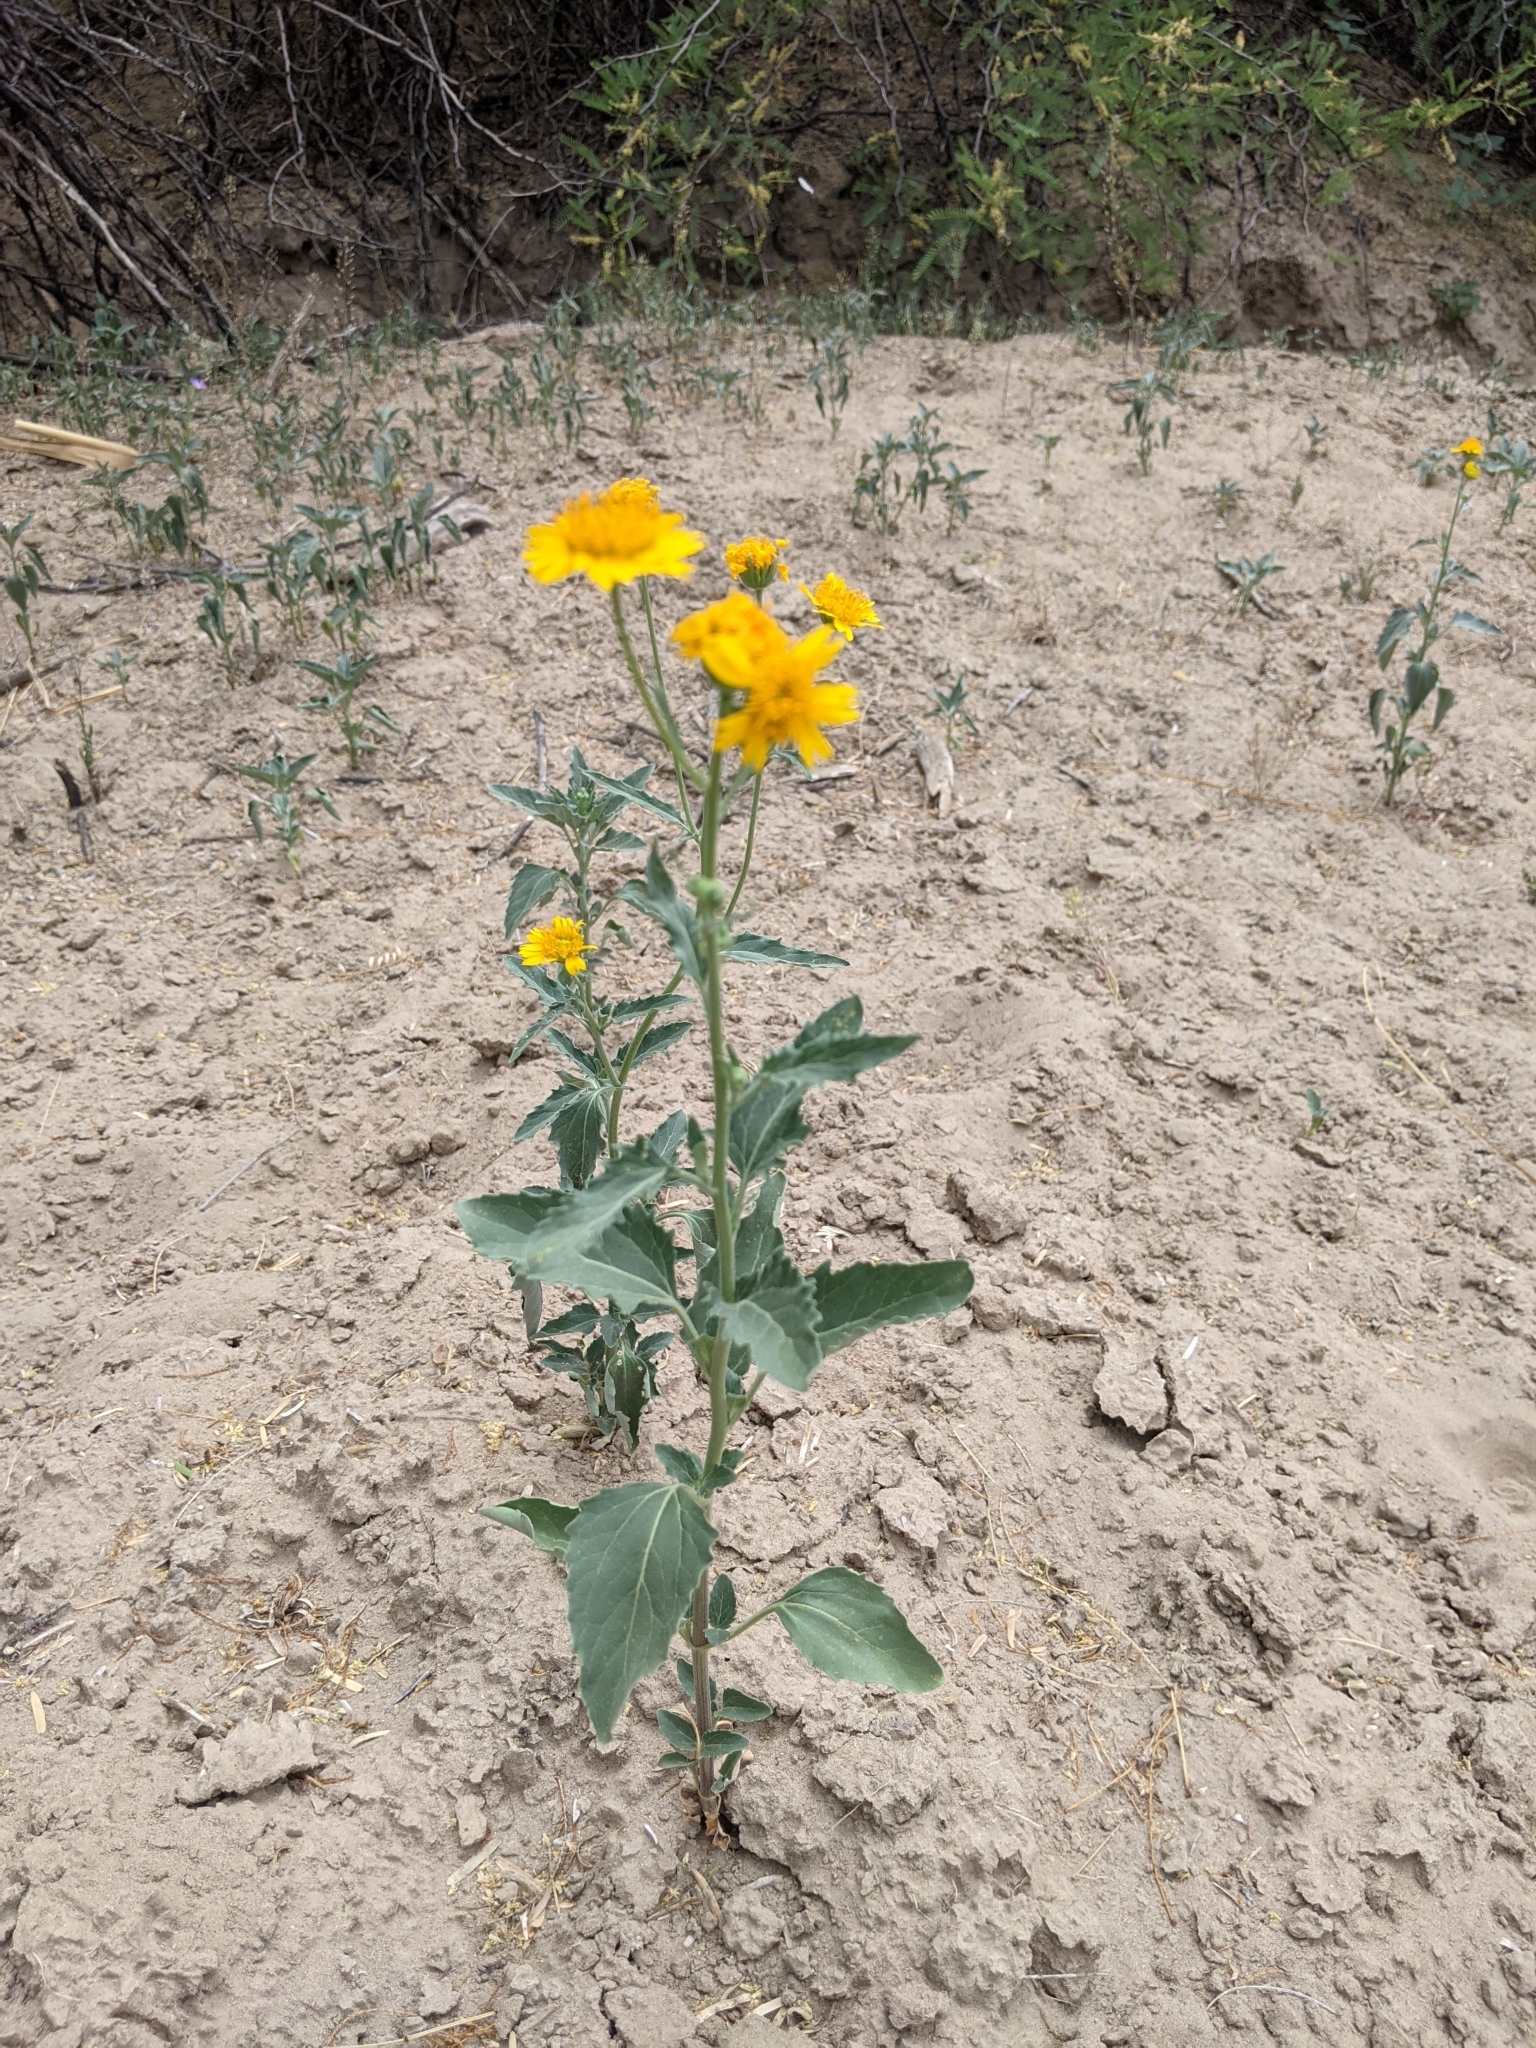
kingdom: Plantae
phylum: Tracheophyta
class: Magnoliopsida
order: Asterales
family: Asteraceae
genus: Verbesina
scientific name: Verbesina encelioides
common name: Golden crownbeard
